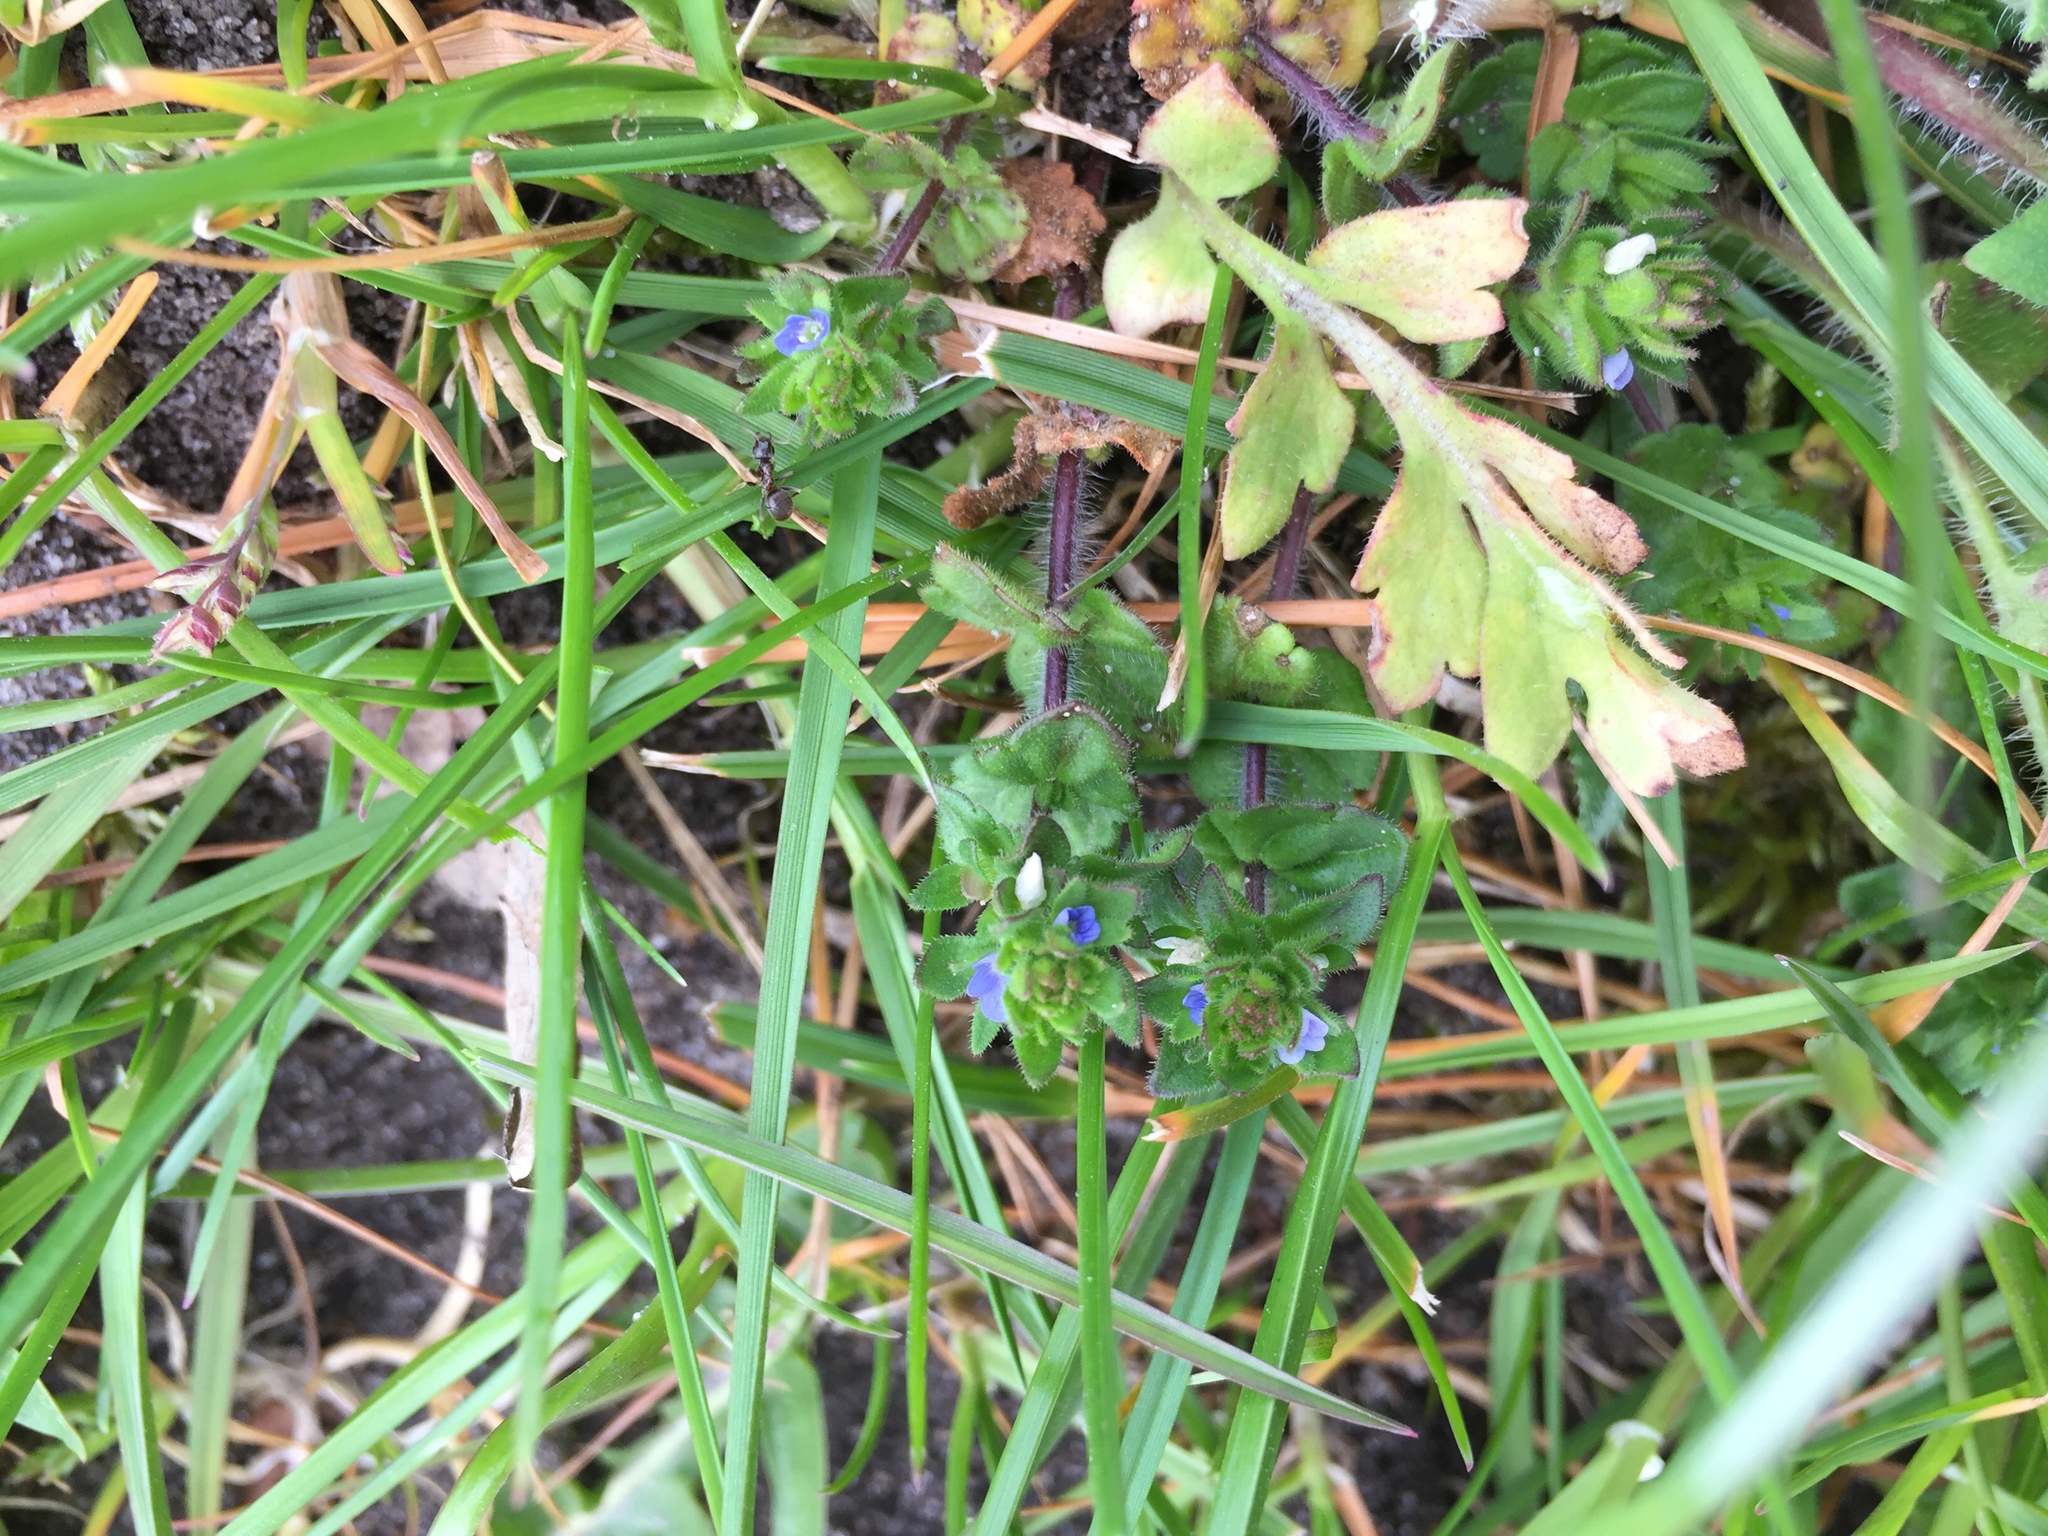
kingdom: Plantae
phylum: Tracheophyta
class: Magnoliopsida
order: Lamiales
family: Plantaginaceae
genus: Veronica
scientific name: Veronica arvensis
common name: Corn speedwell
